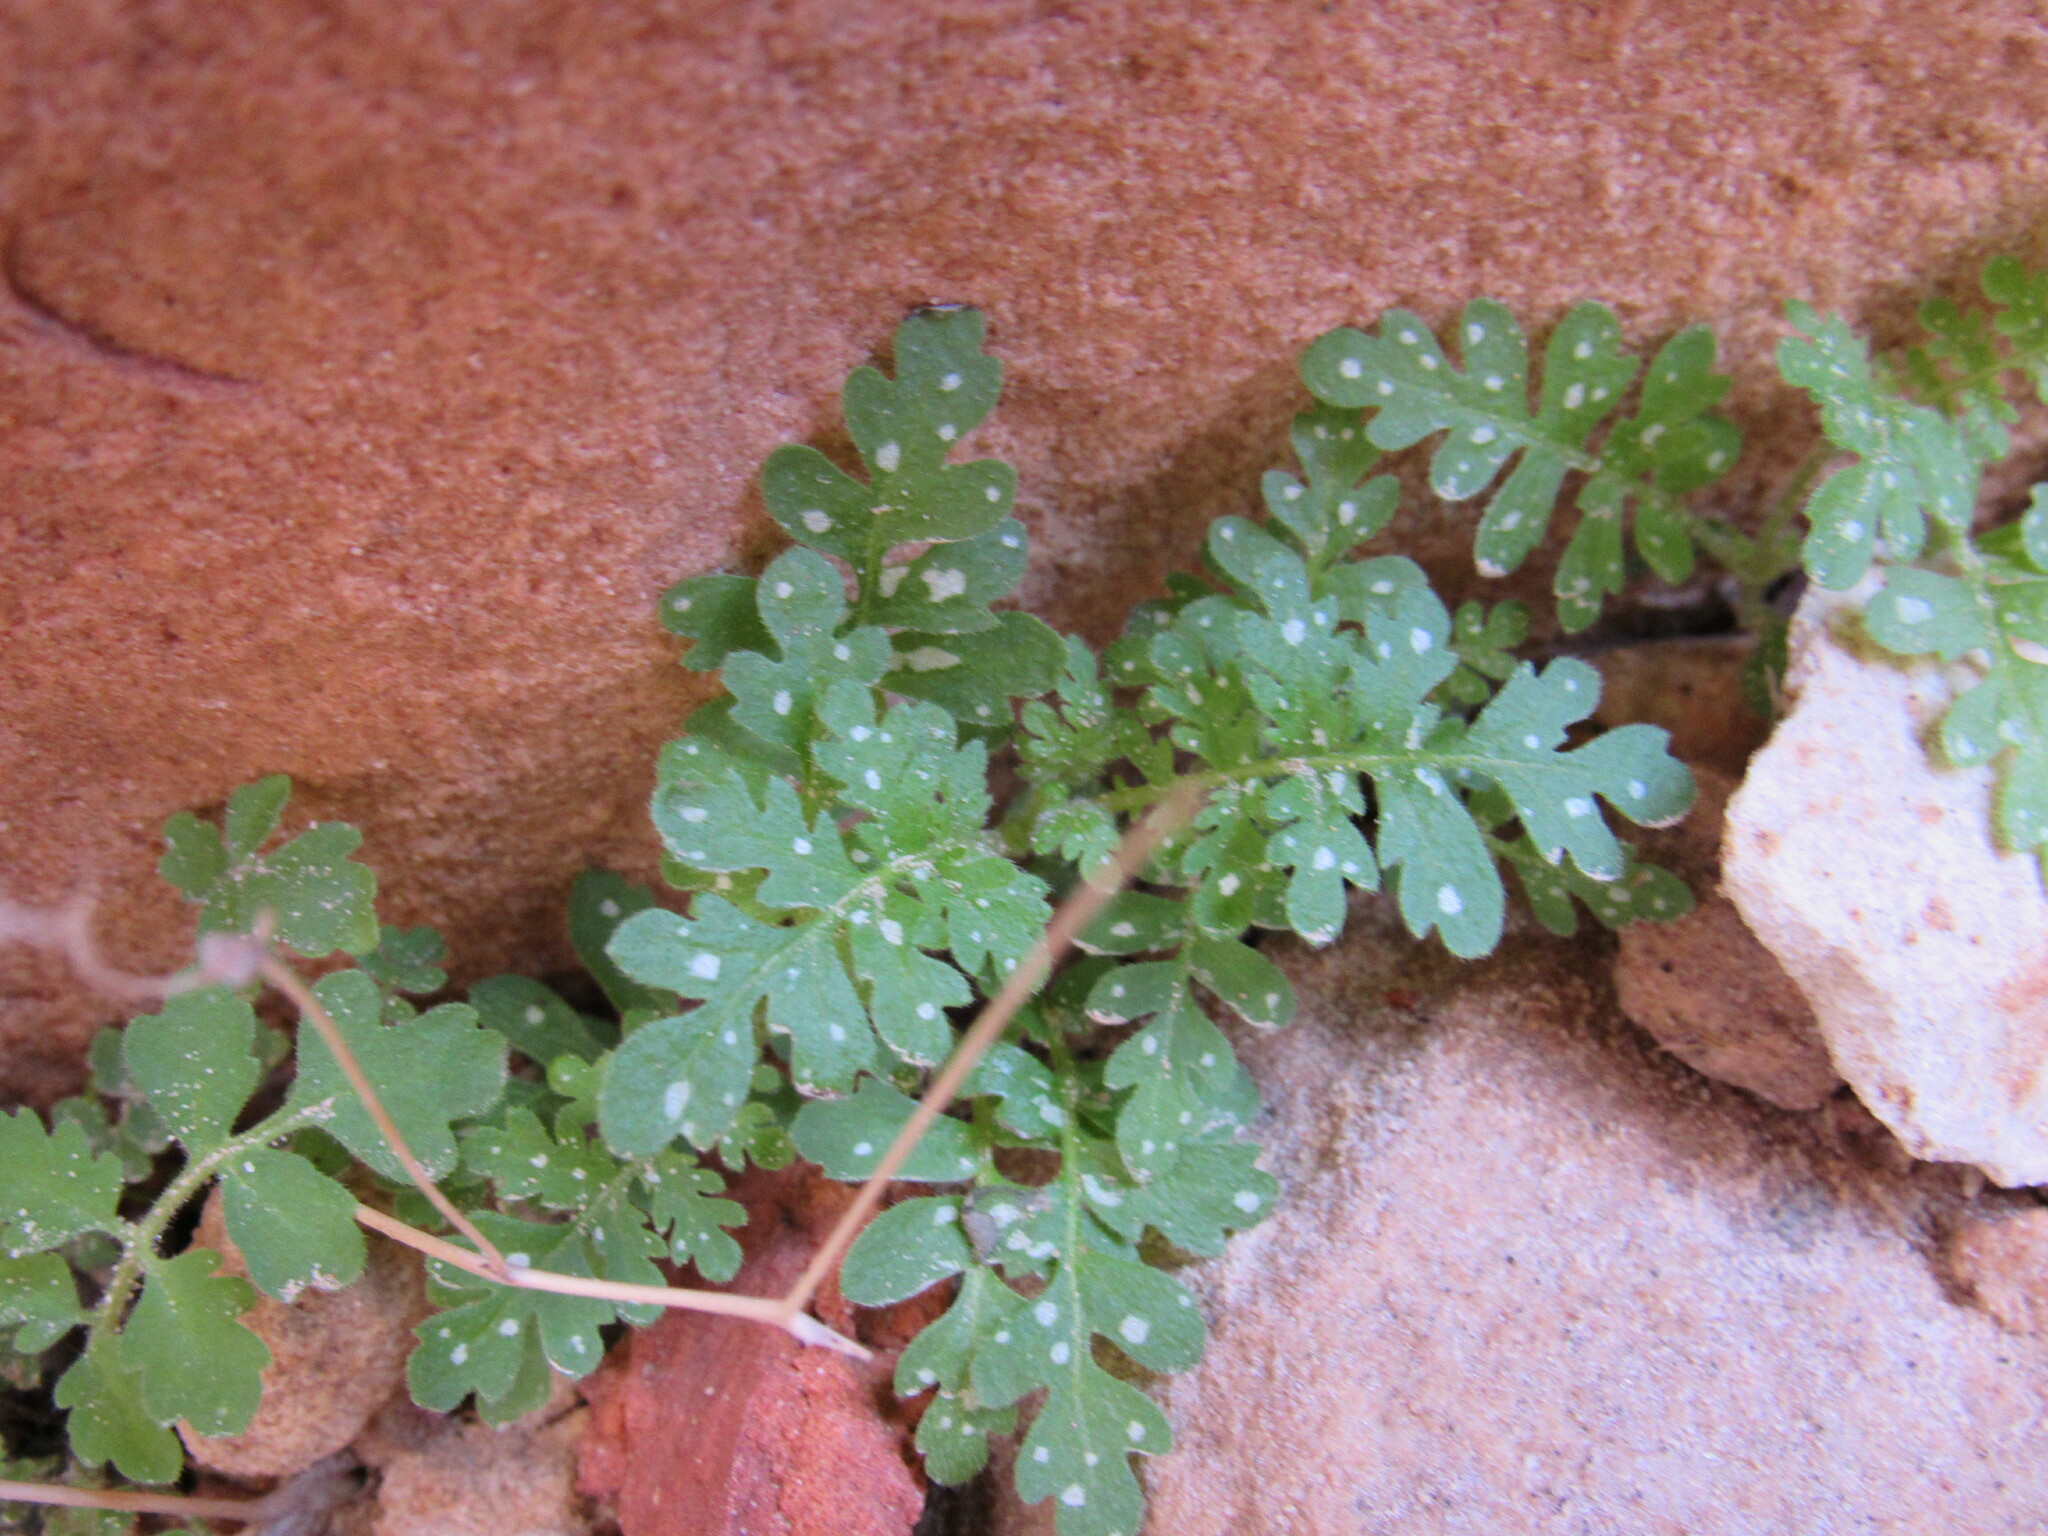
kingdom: Plantae
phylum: Tracheophyta
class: Magnoliopsida
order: Boraginales
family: Hydrophyllaceae
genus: Eucrypta
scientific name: Eucrypta chrysanthemifolia
